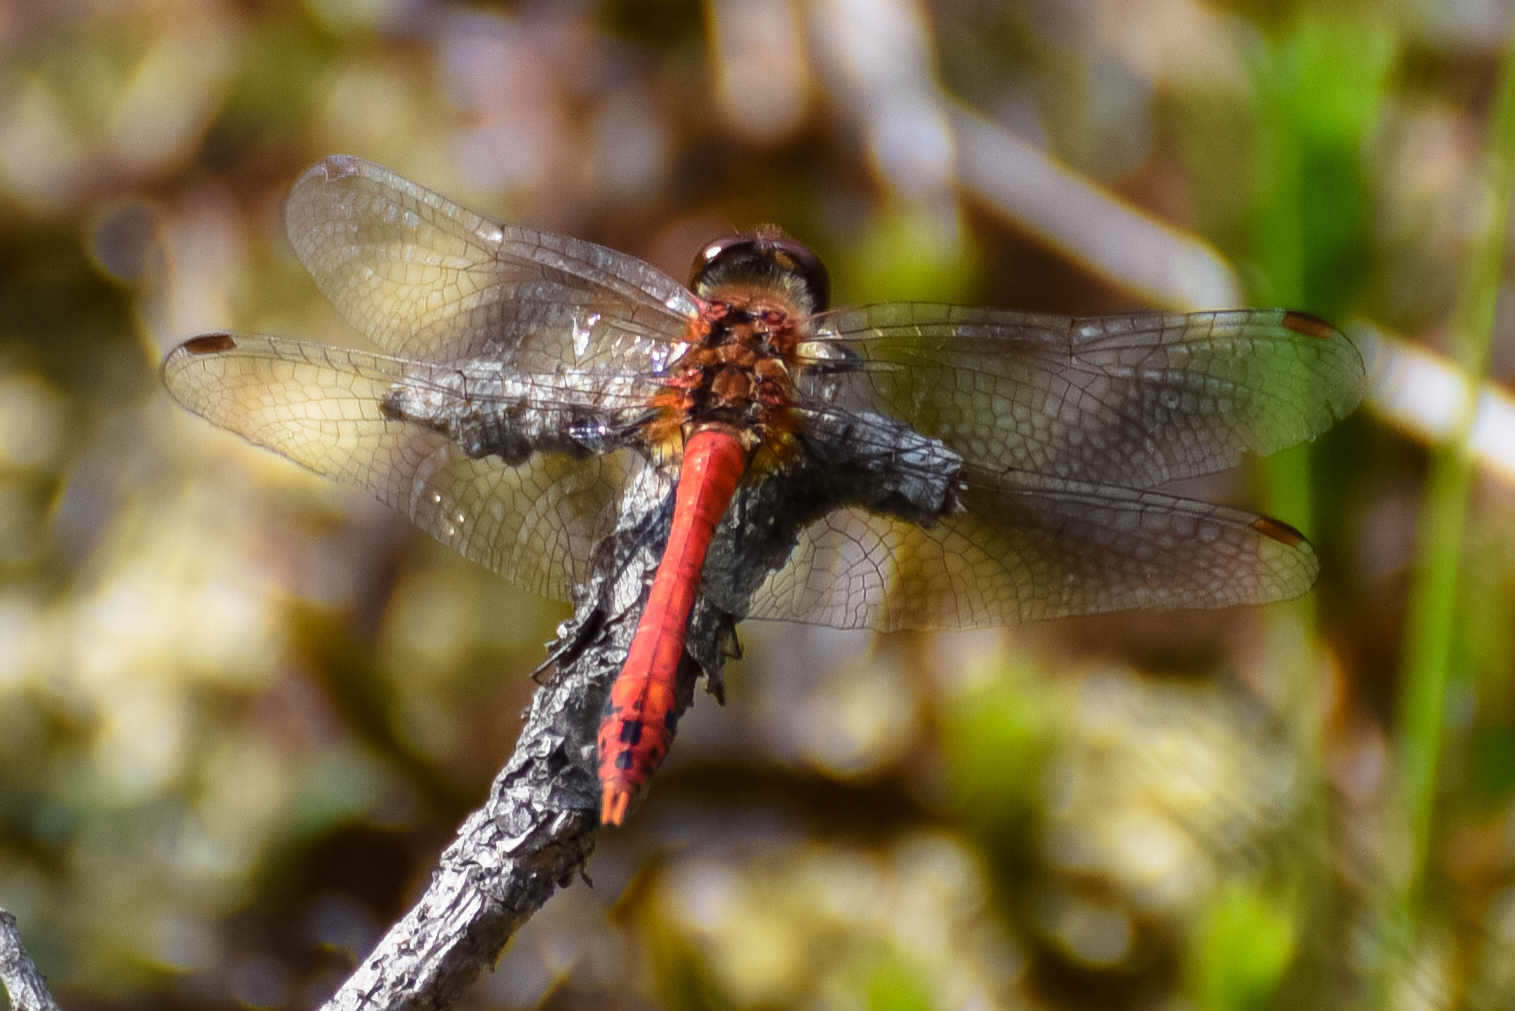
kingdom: Animalia
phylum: Arthropoda
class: Insecta
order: Odonata
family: Libellulidae
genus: Sympetrum
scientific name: Sympetrum sanguineum
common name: Ruddy darter
